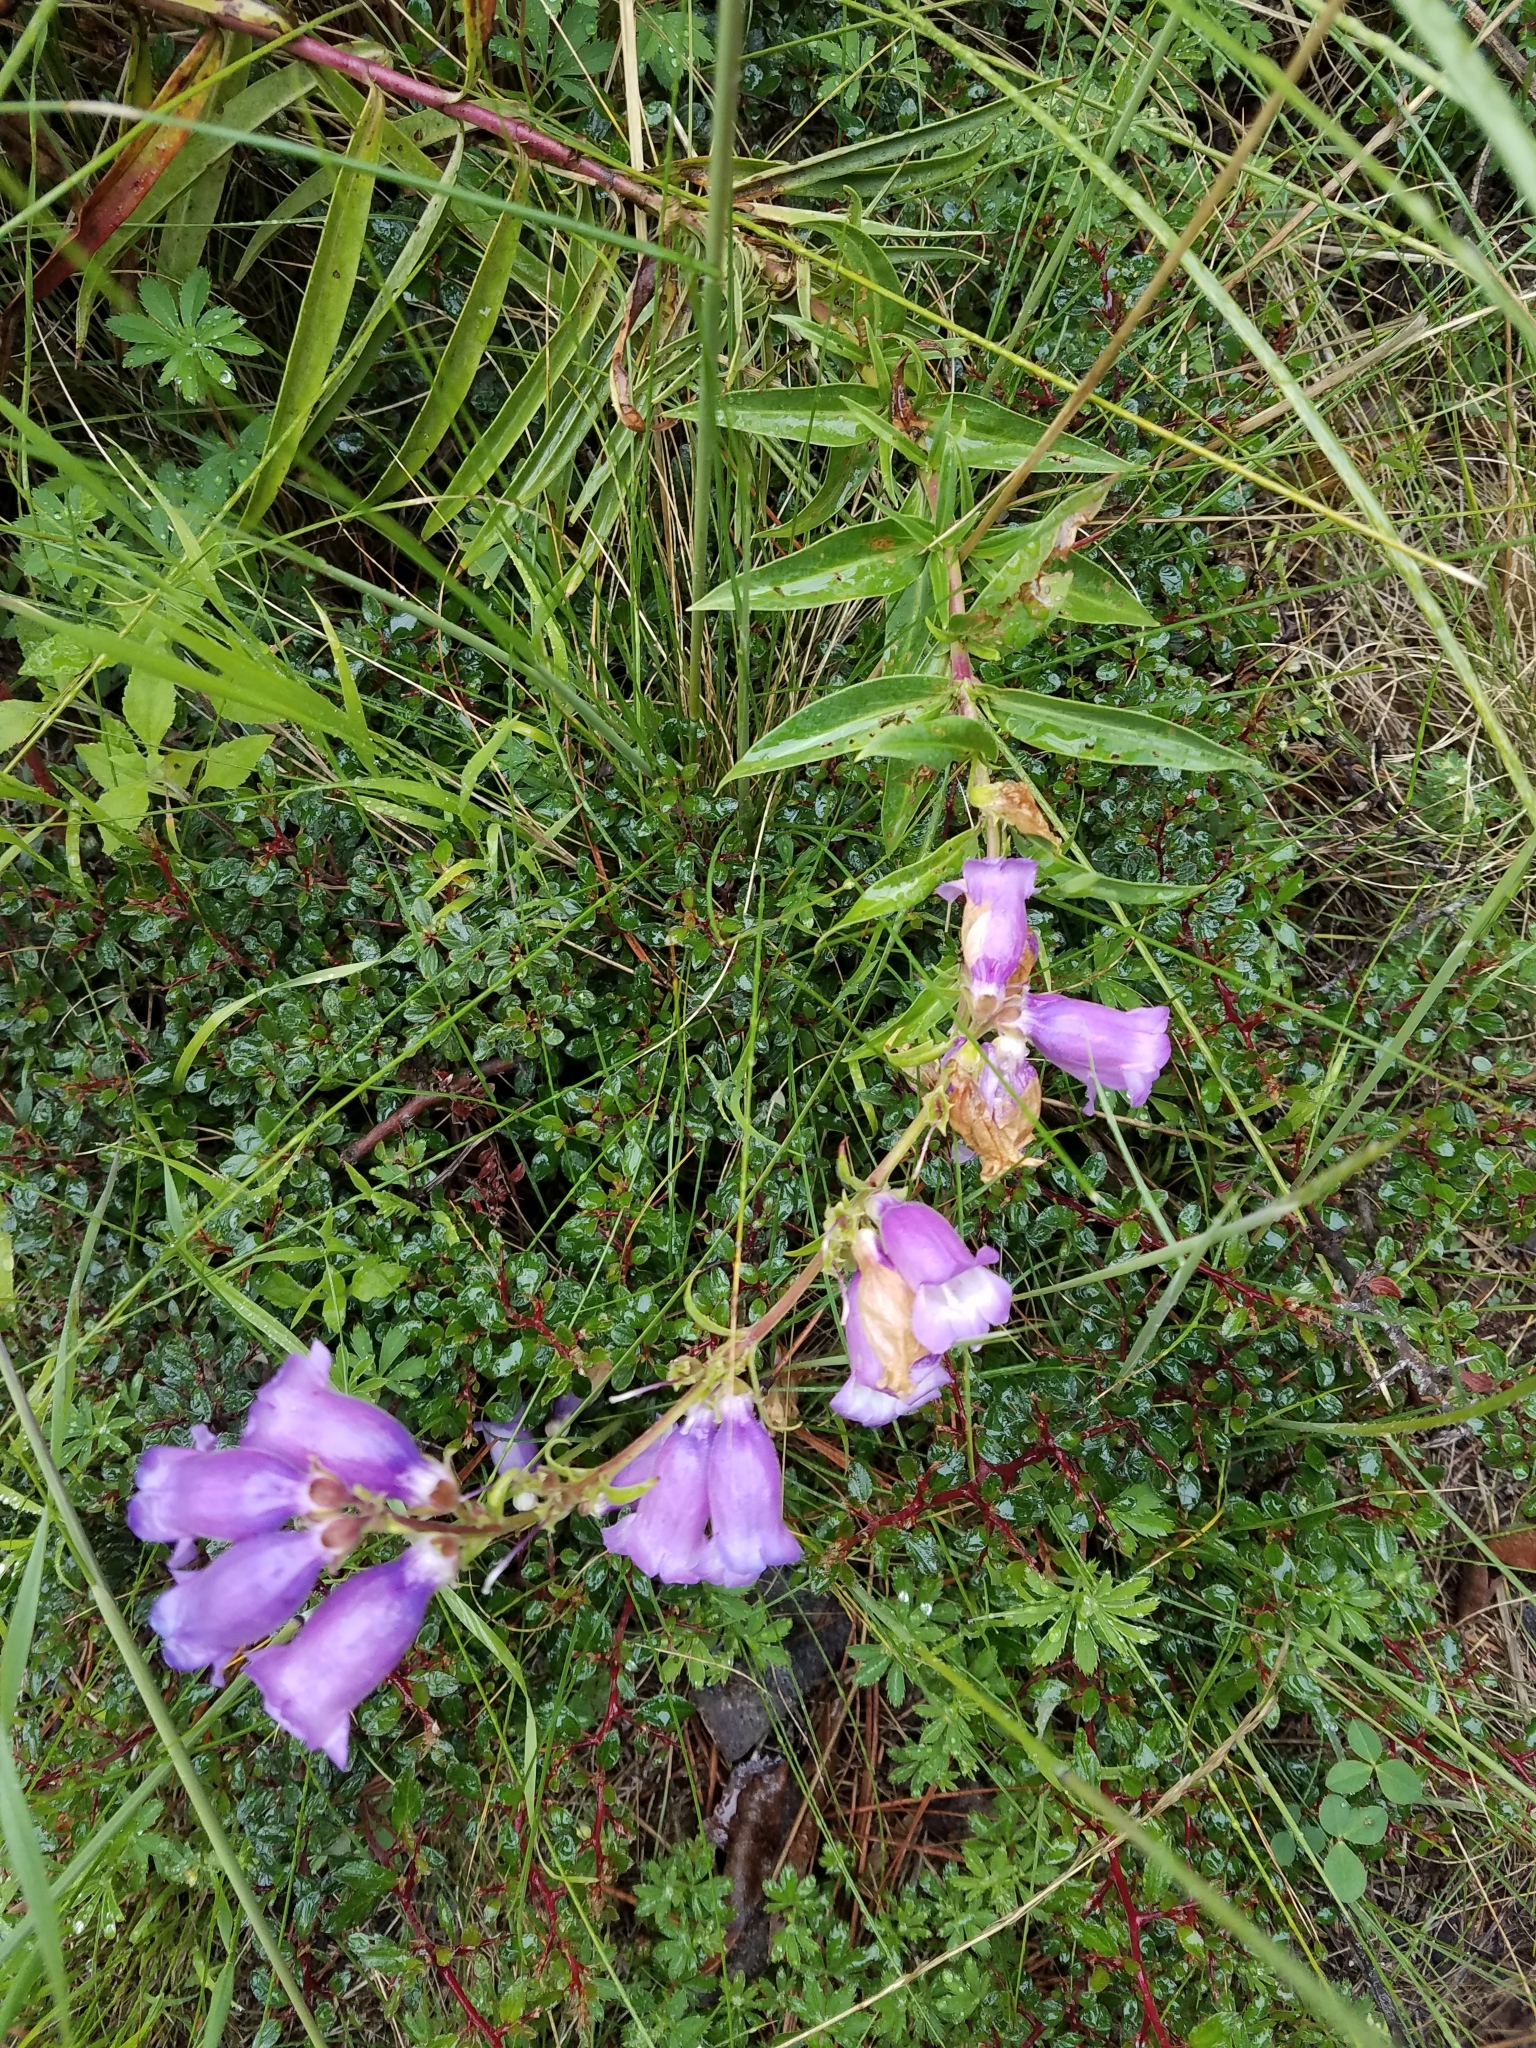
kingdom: Plantae
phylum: Tracheophyta
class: Magnoliopsida
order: Lamiales
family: Plantaginaceae
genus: Penstemon
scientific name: Penstemon gentianoides
